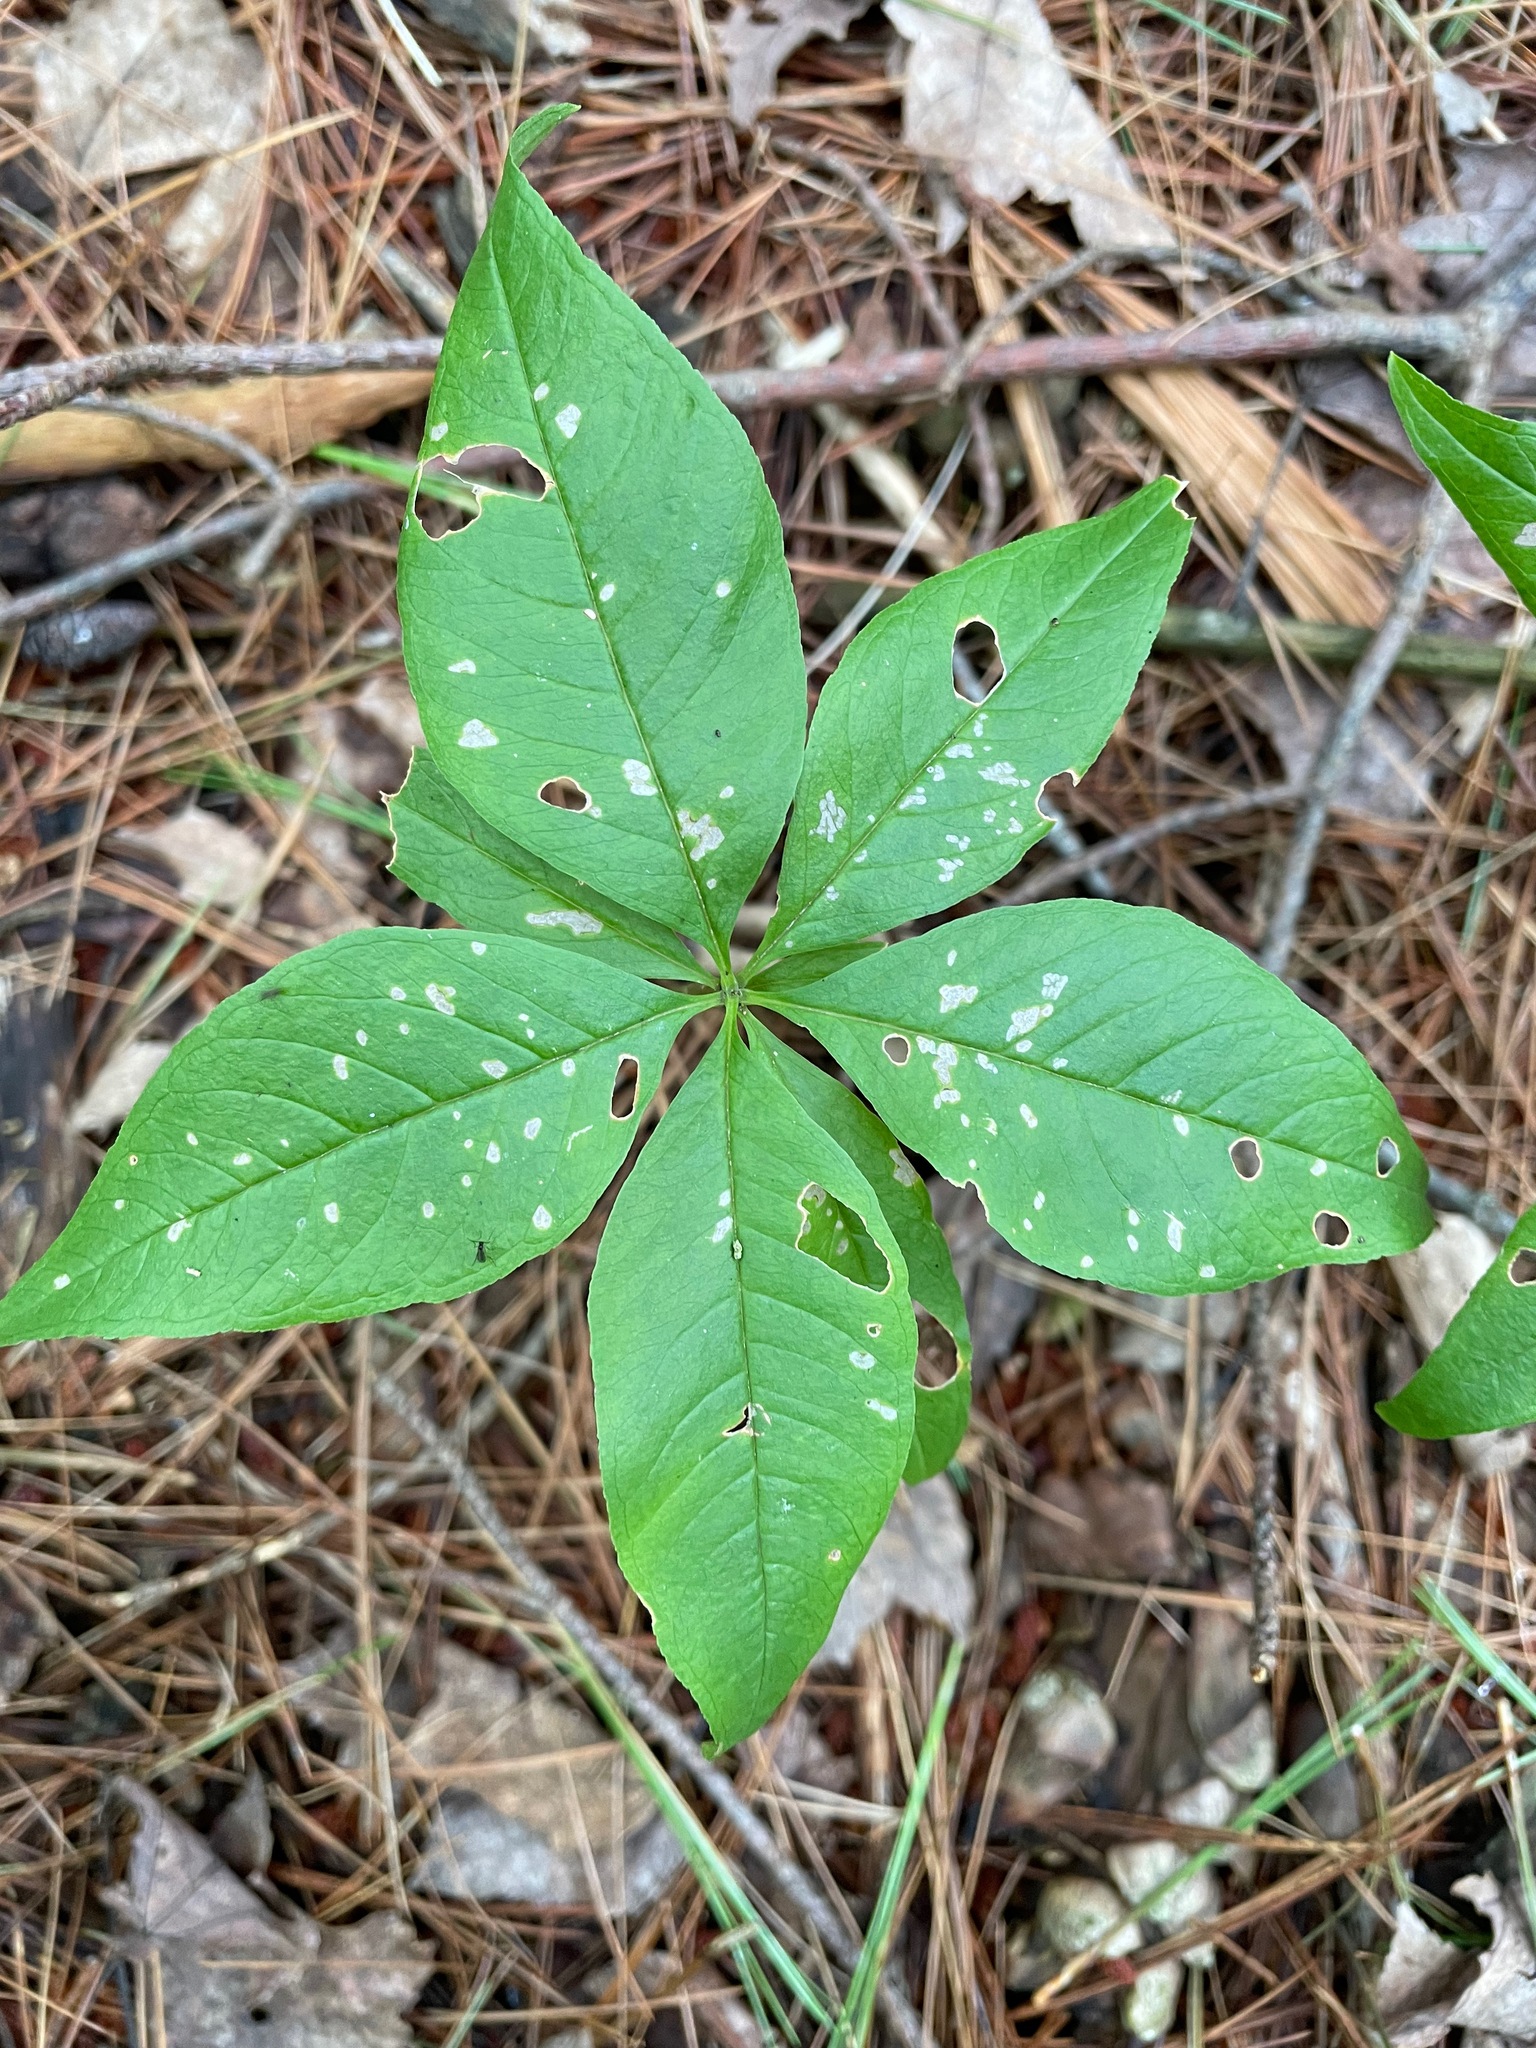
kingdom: Plantae
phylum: Tracheophyta
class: Magnoliopsida
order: Ericales
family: Primulaceae
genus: Lysimachia
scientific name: Lysimachia borealis
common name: American starflower
